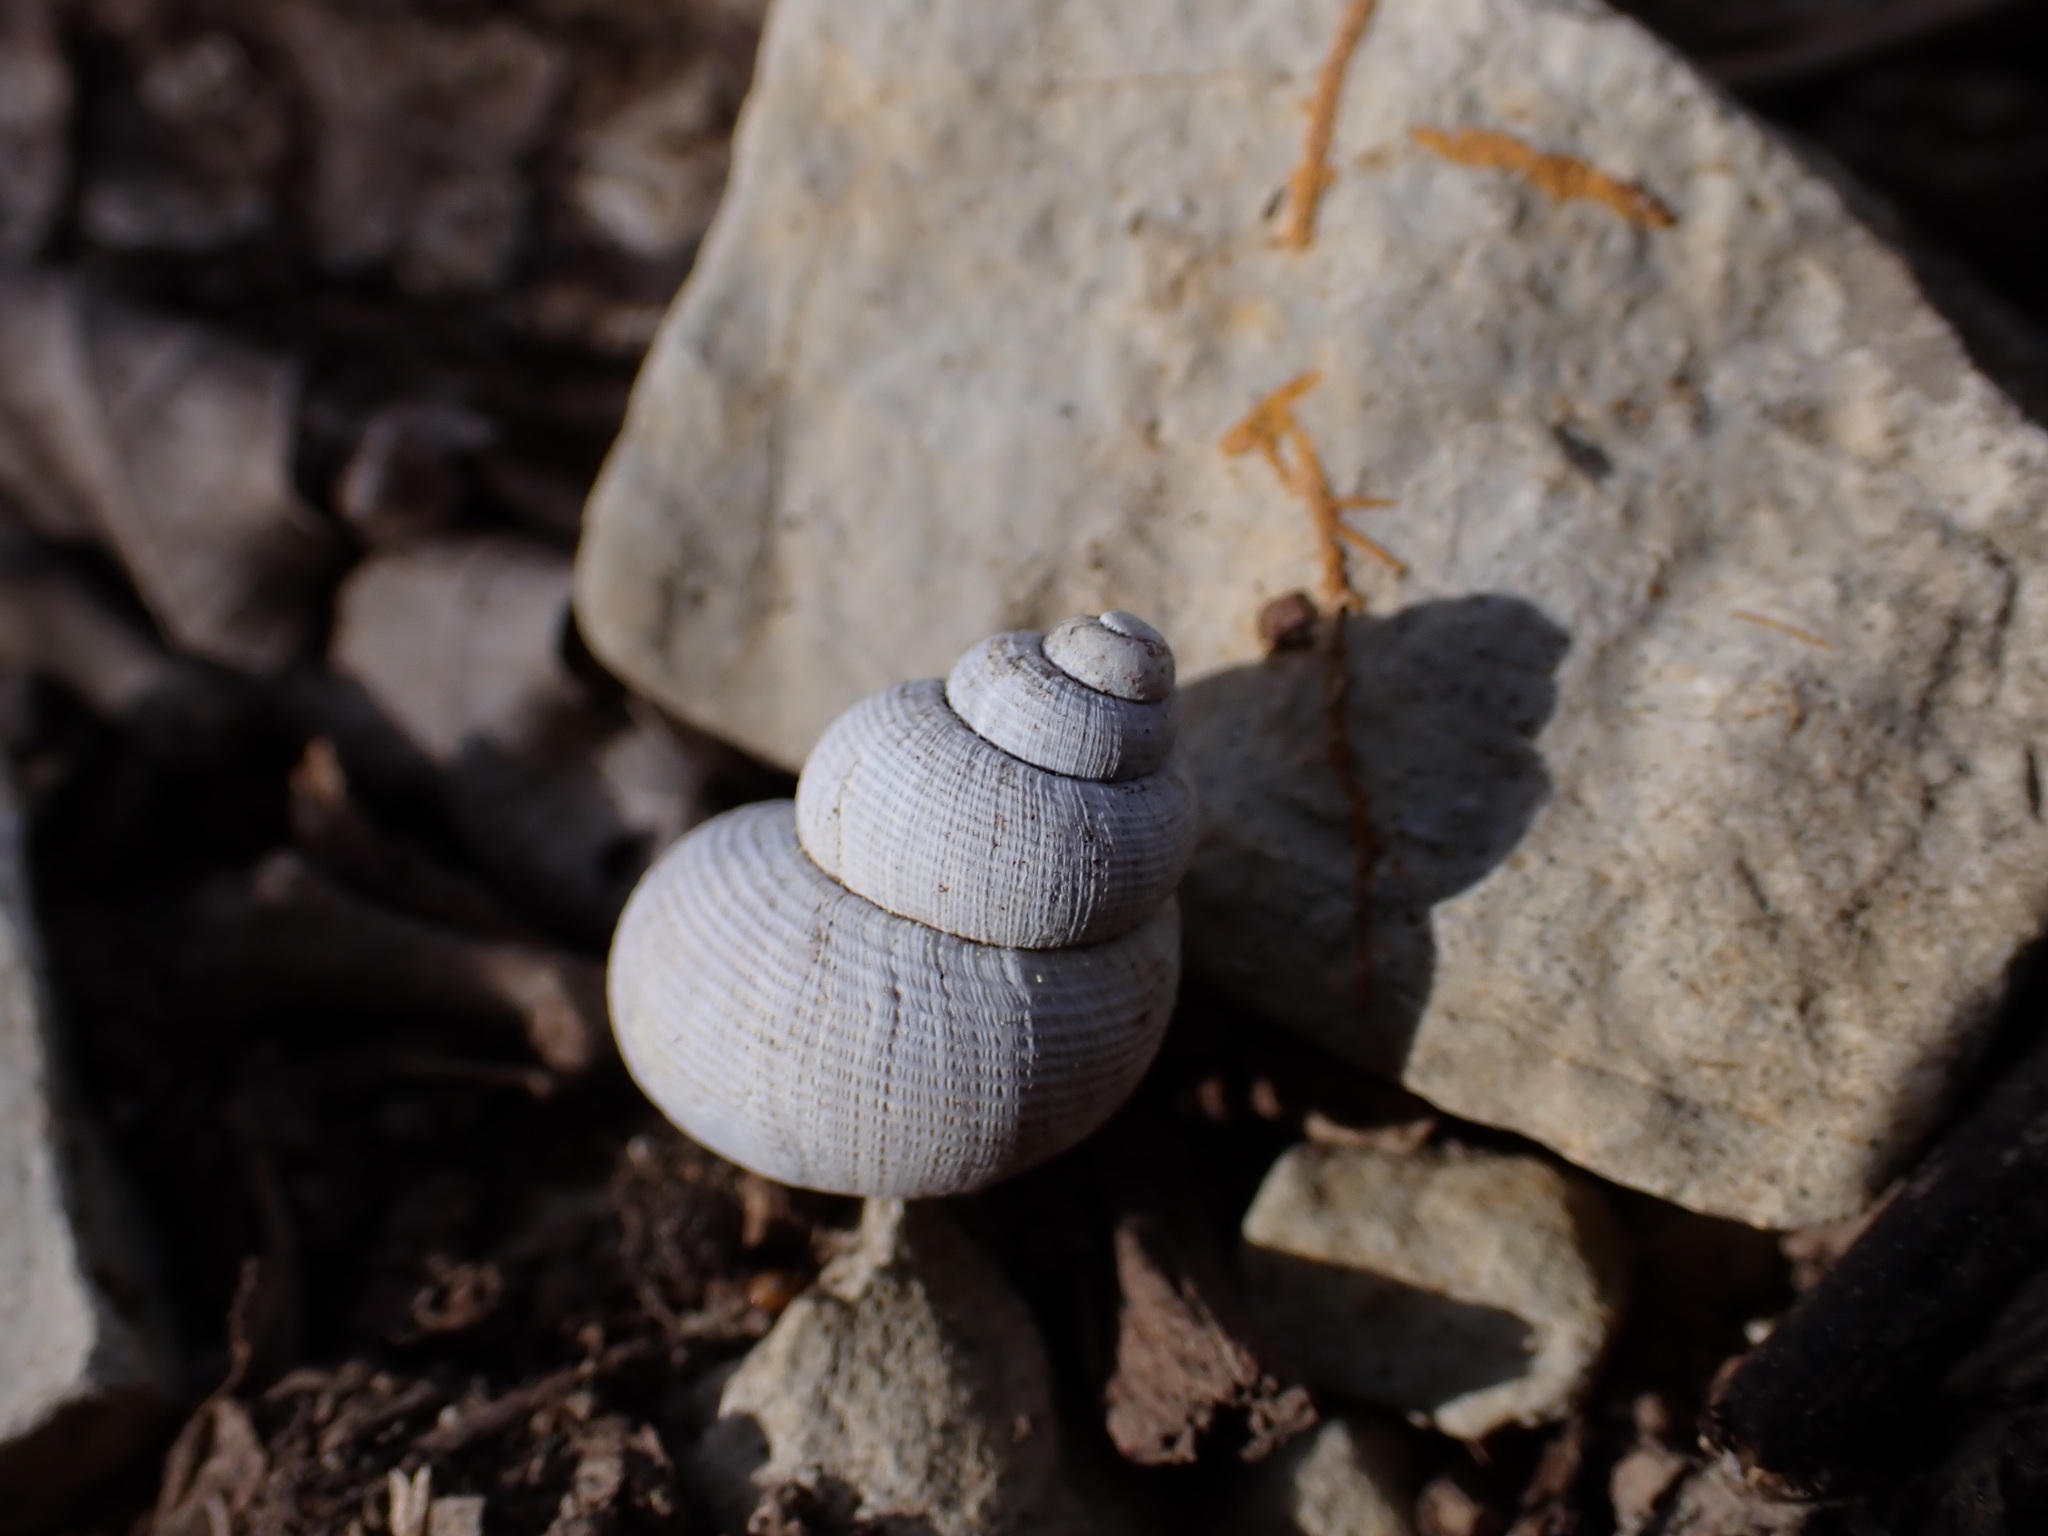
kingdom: Animalia
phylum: Mollusca
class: Gastropoda
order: Littorinimorpha
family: Pomatiidae
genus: Pomatias
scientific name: Pomatias elegans
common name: Red-mouthed snail
